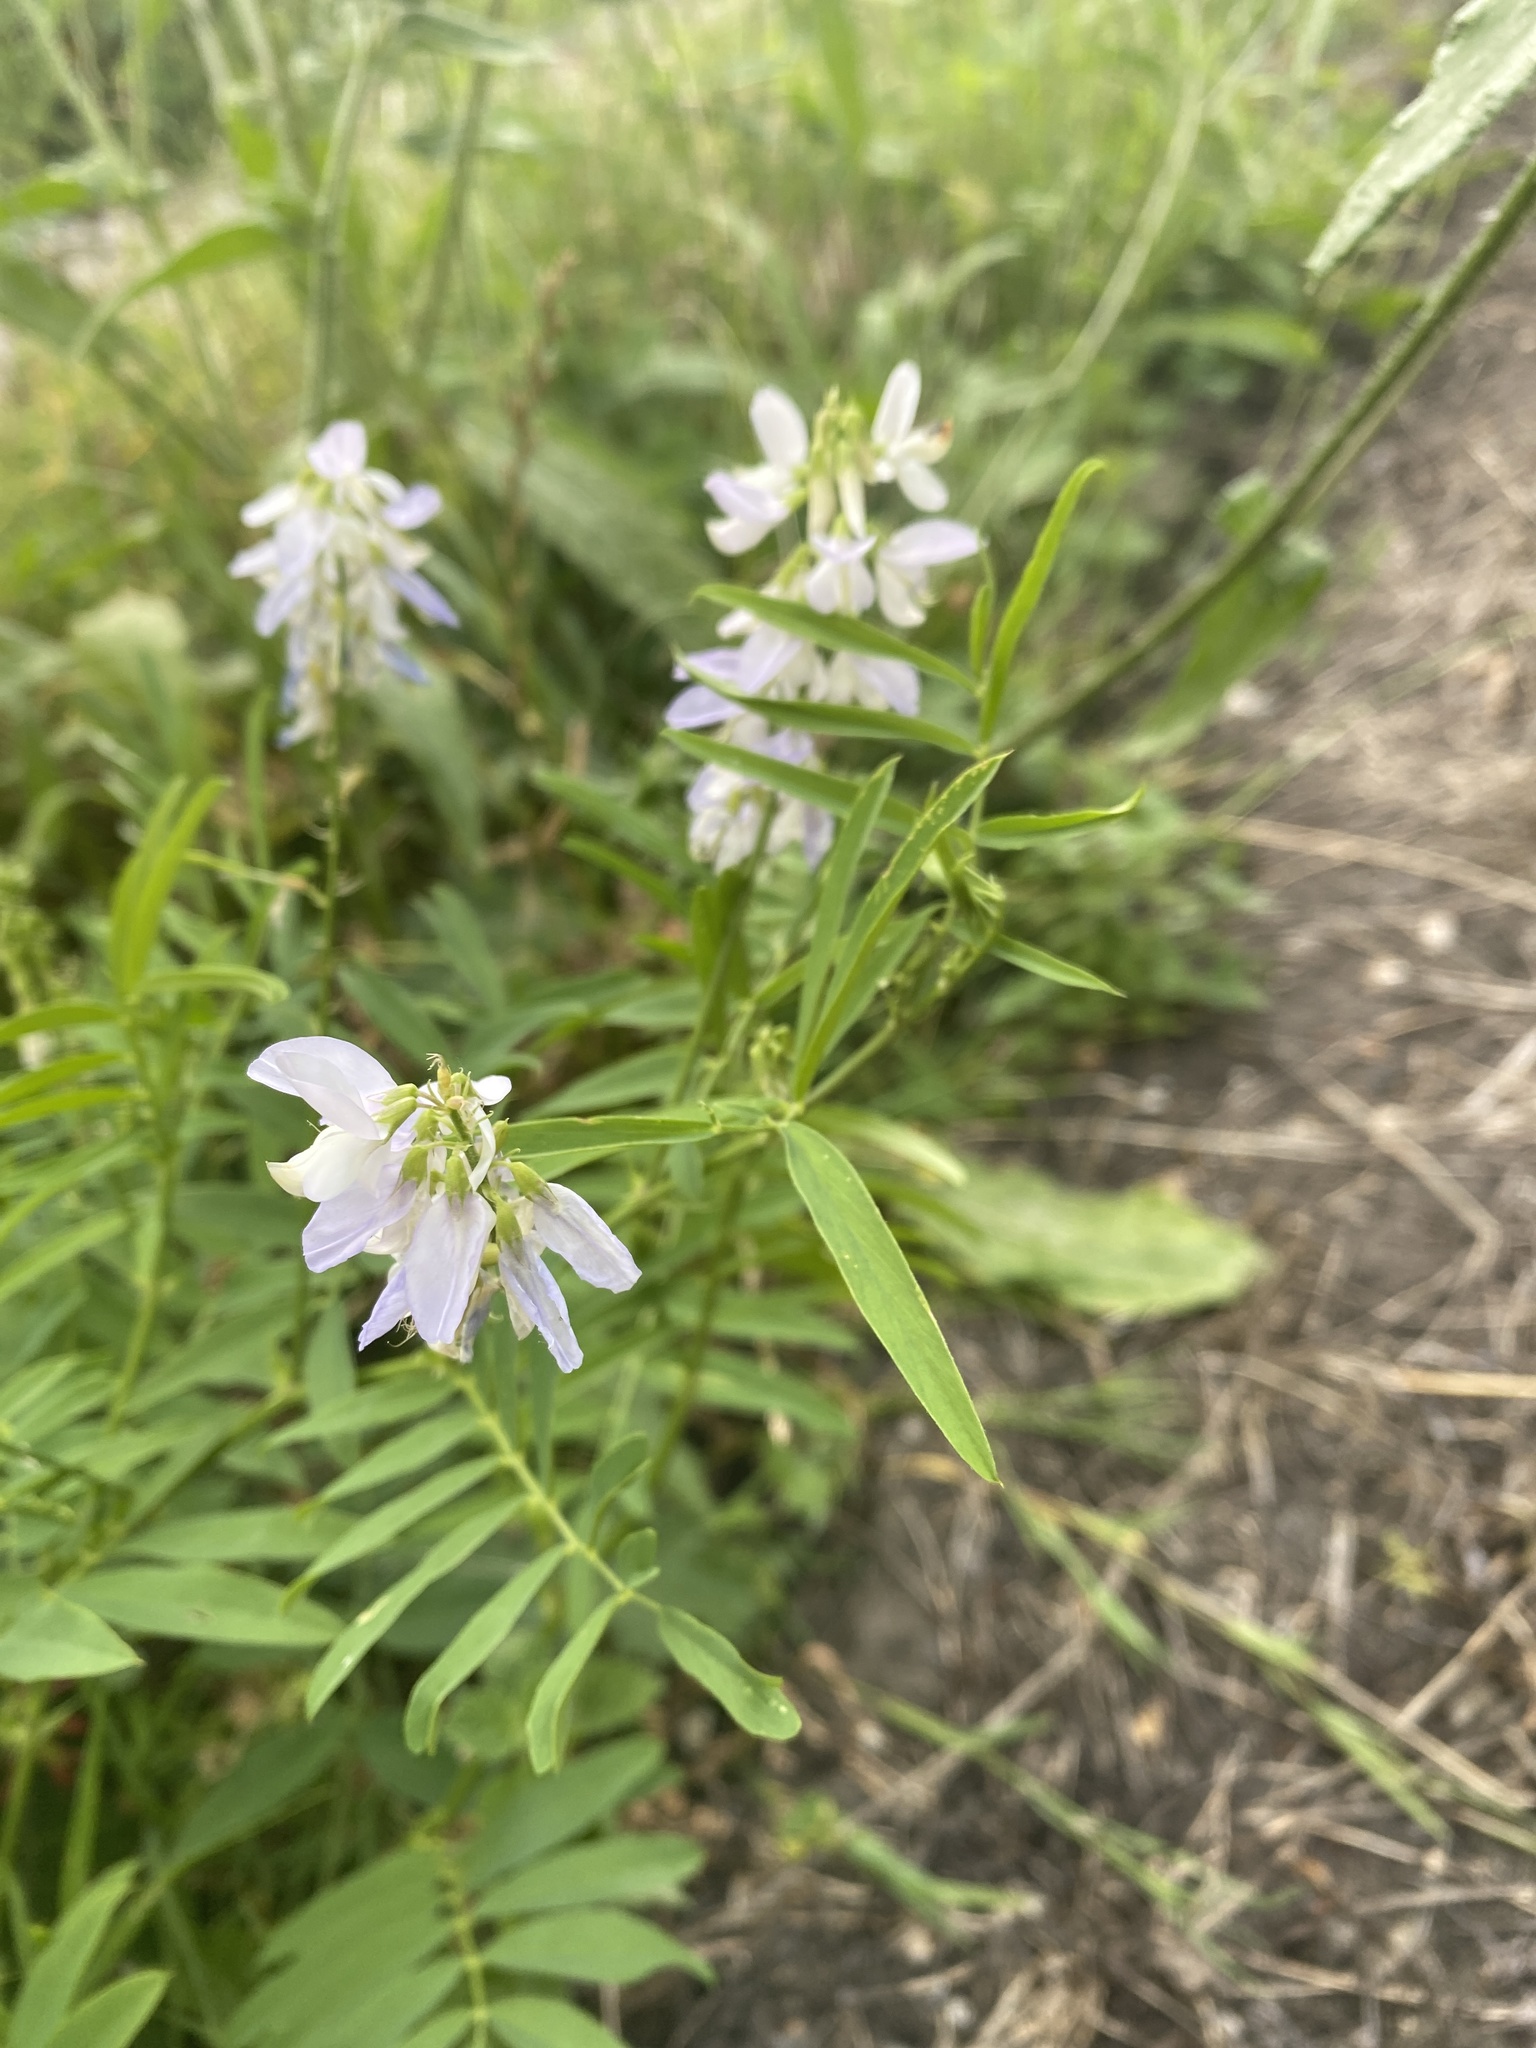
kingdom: Plantae
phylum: Tracheophyta
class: Magnoliopsida
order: Fabales
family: Fabaceae
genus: Galega
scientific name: Galega officinalis
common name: Goat's-rue
